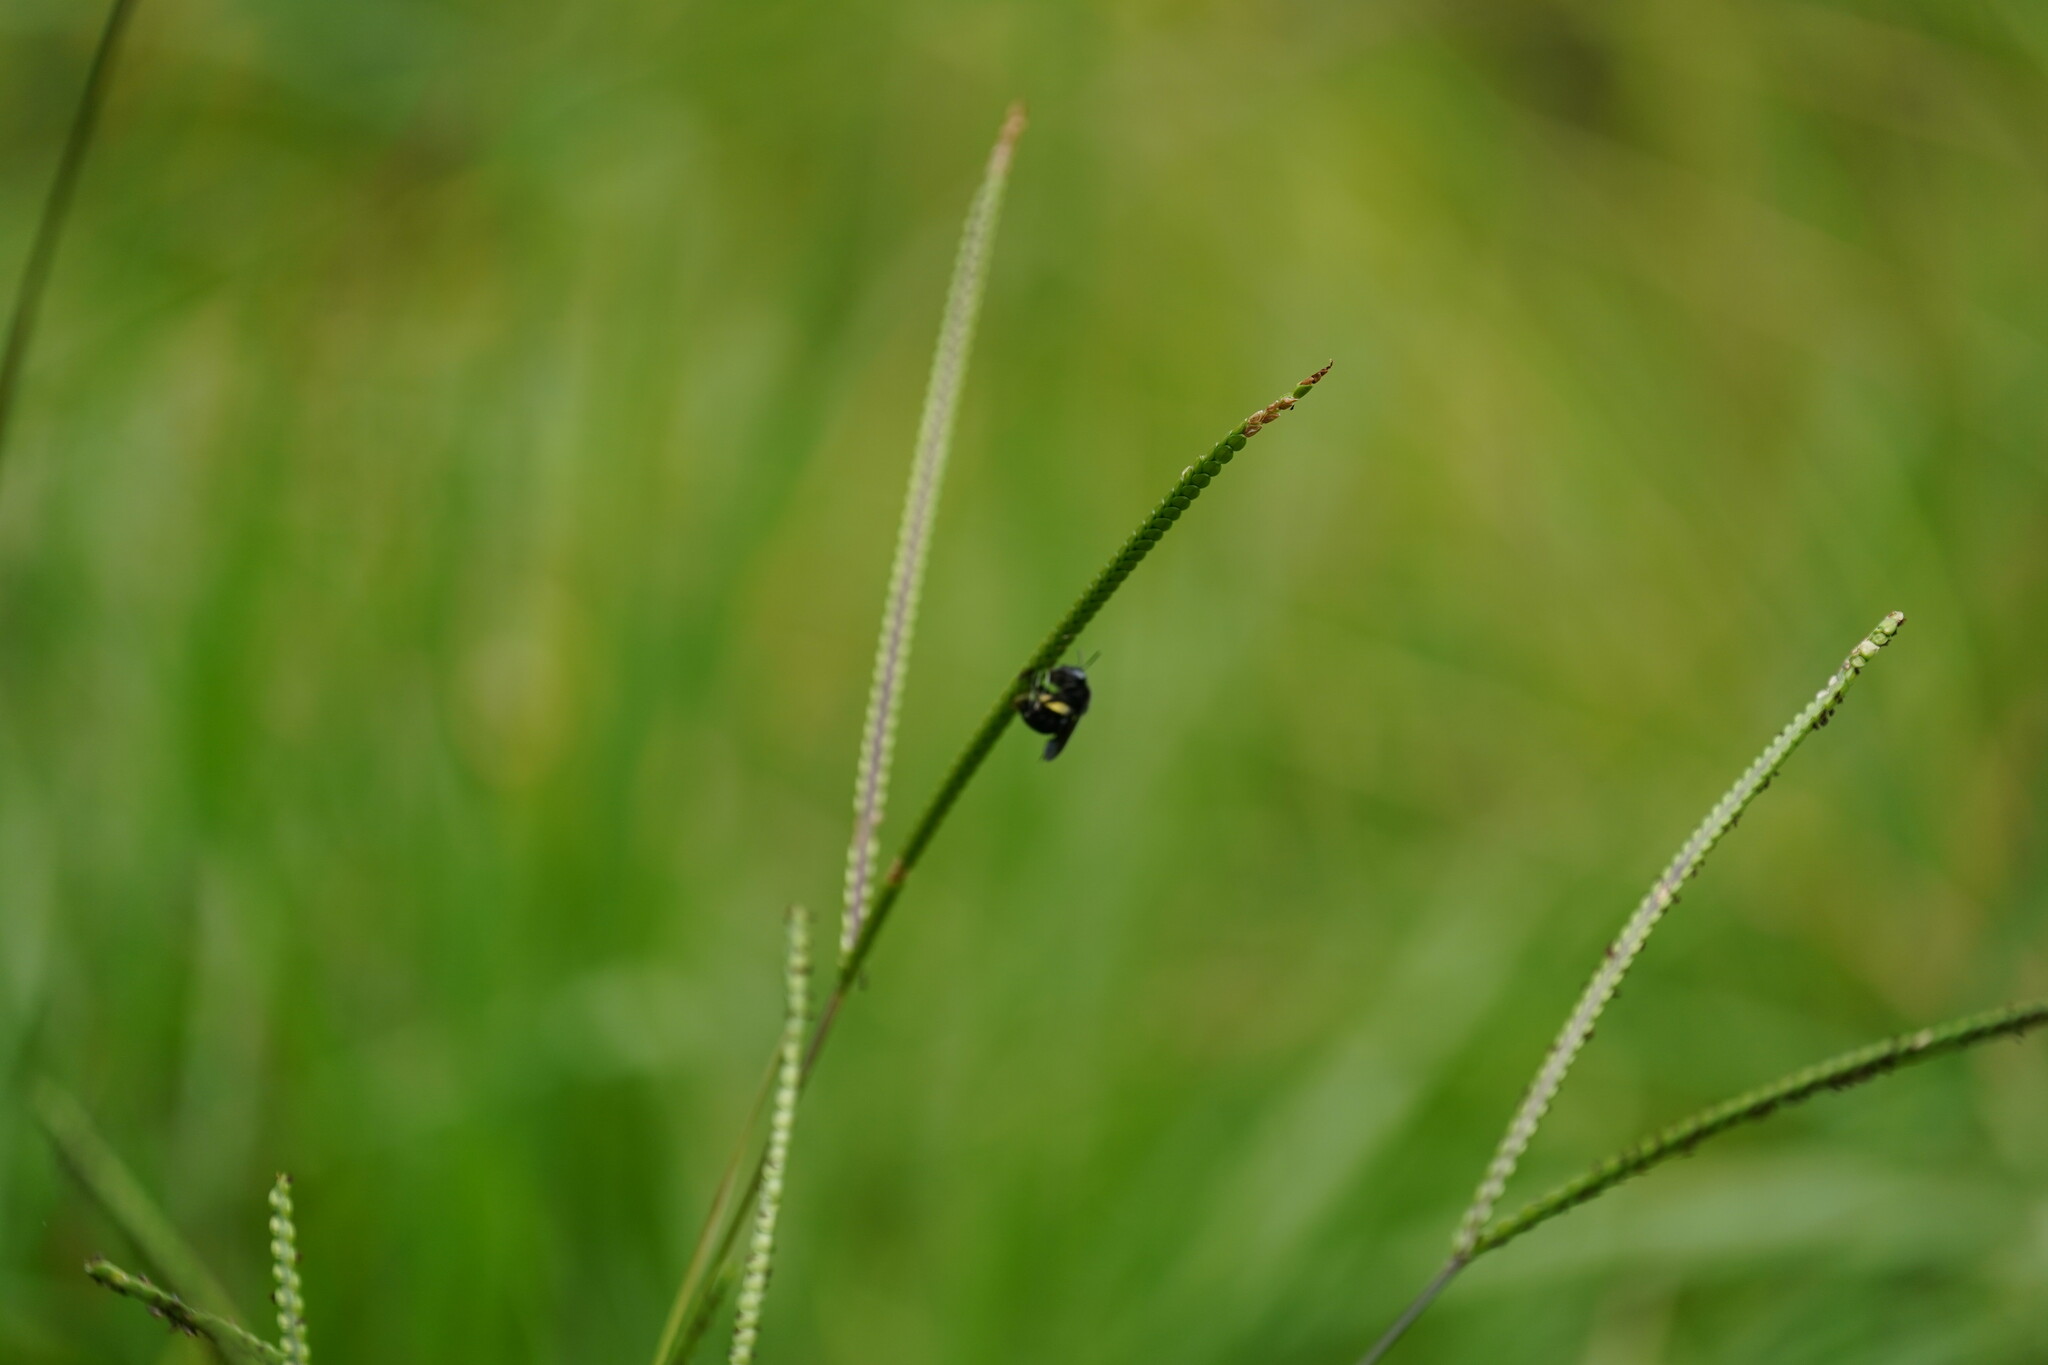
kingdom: Animalia
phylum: Arthropoda
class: Insecta
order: Hymenoptera
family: Apidae
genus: Melissodes
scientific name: Melissodes bimaculatus
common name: Two-spotted long-horned bee
